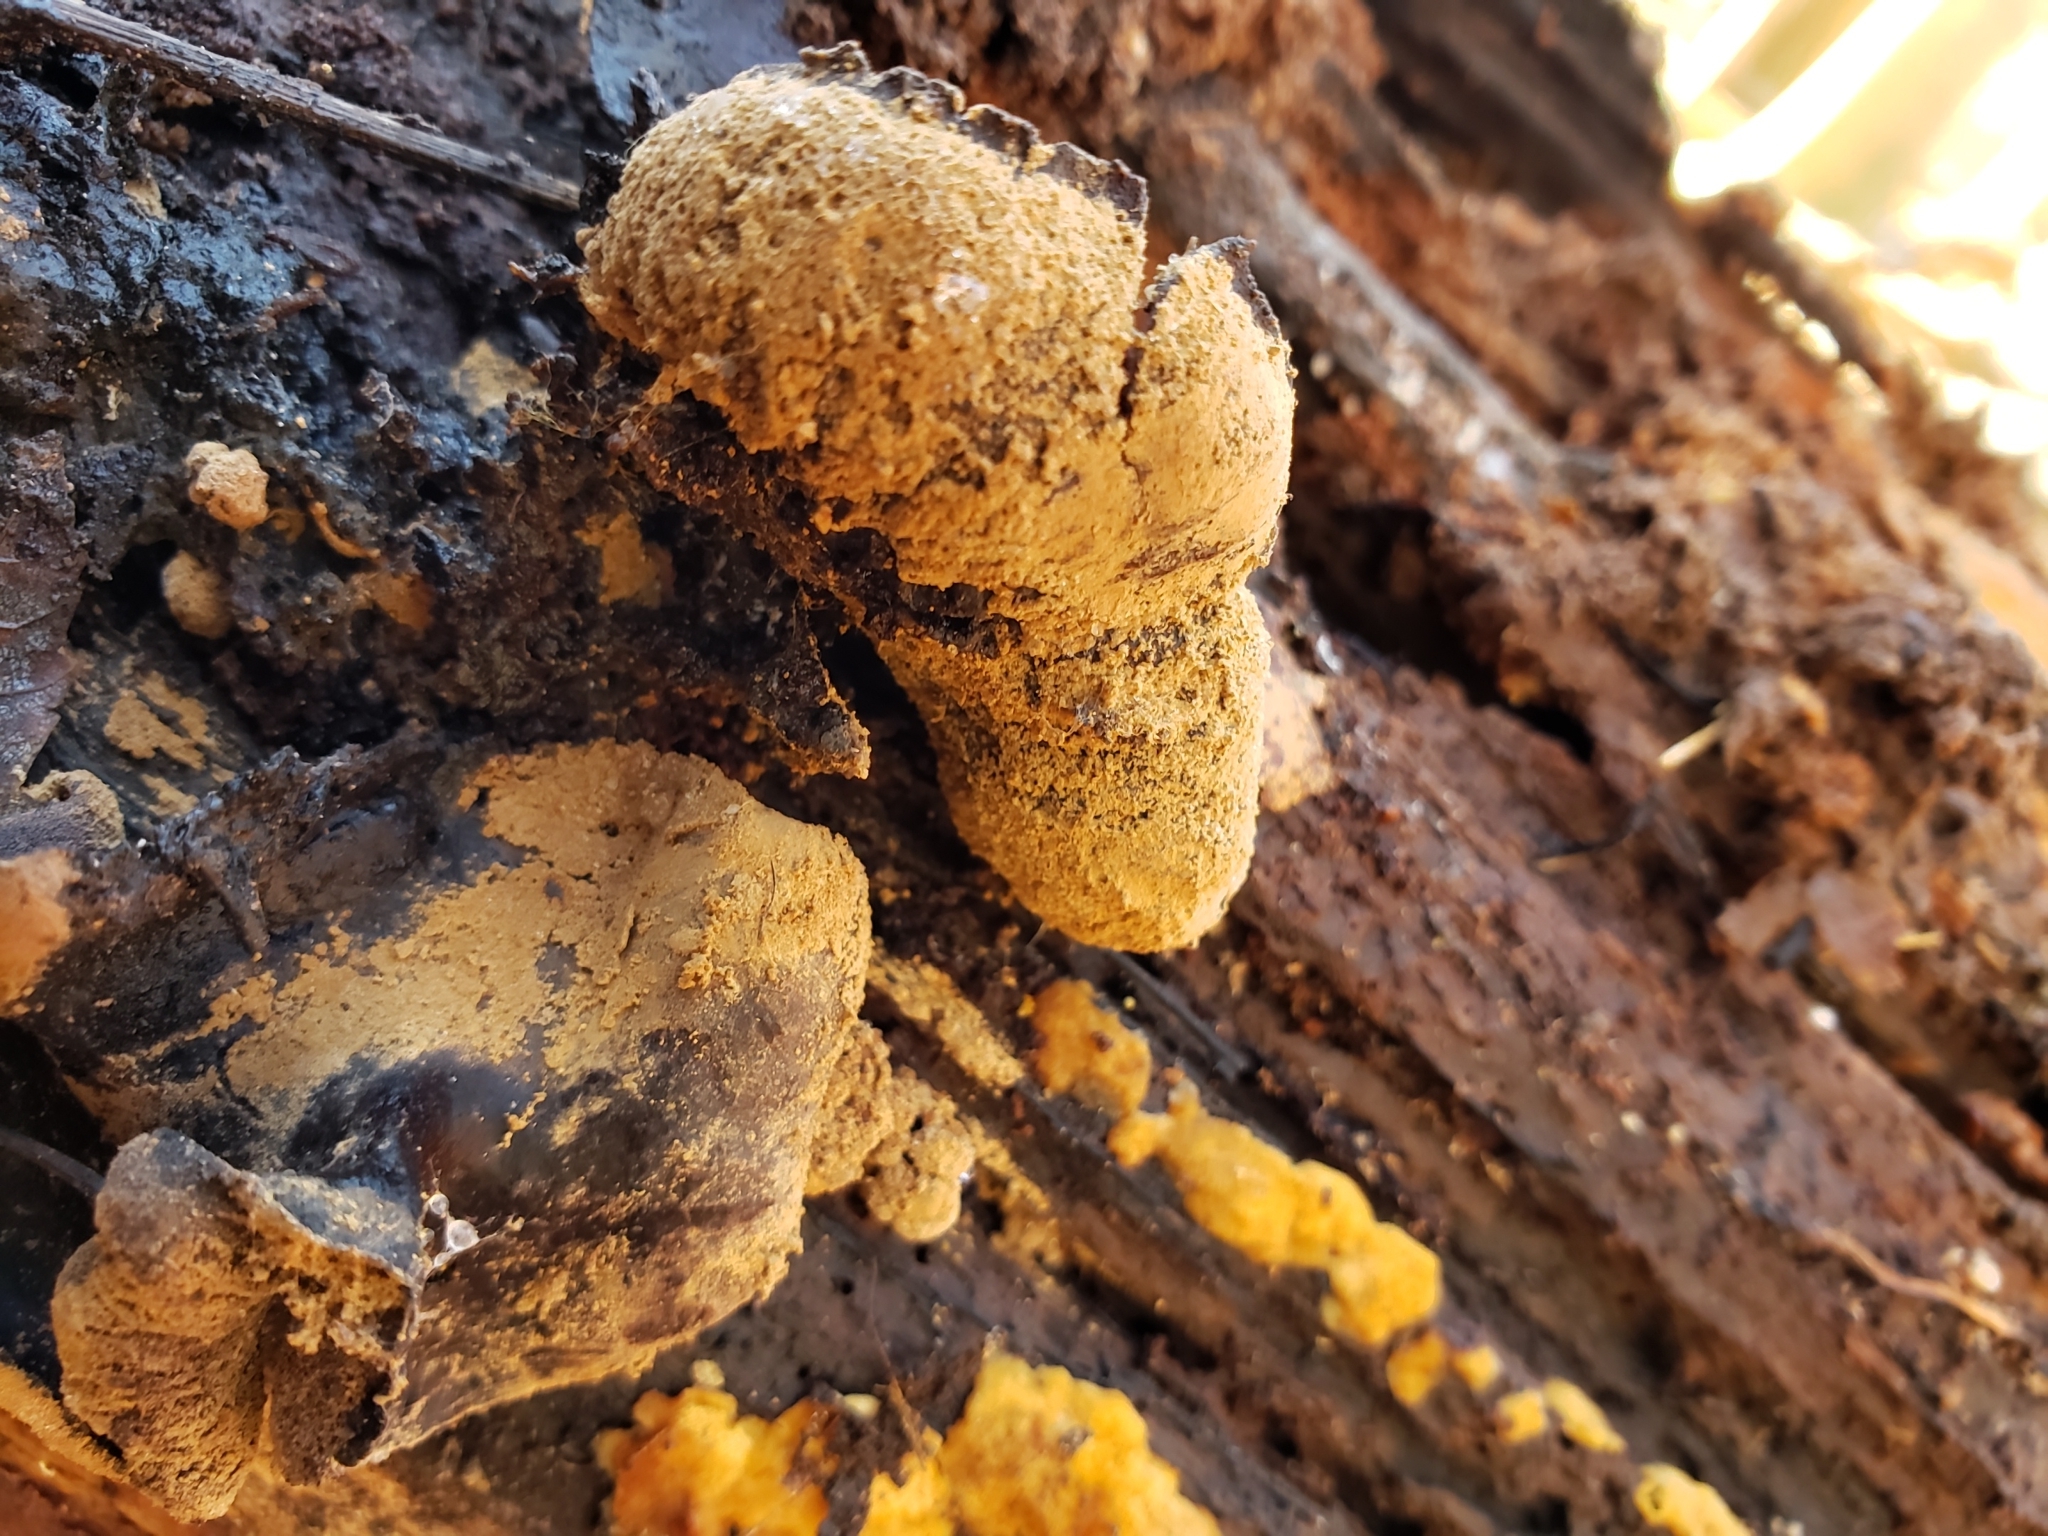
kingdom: Fungi
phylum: Ascomycota
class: Leotiomycetes
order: Helotiales
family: Cordieritidaceae
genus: Diplocarpa
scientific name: Diplocarpa irregularis
